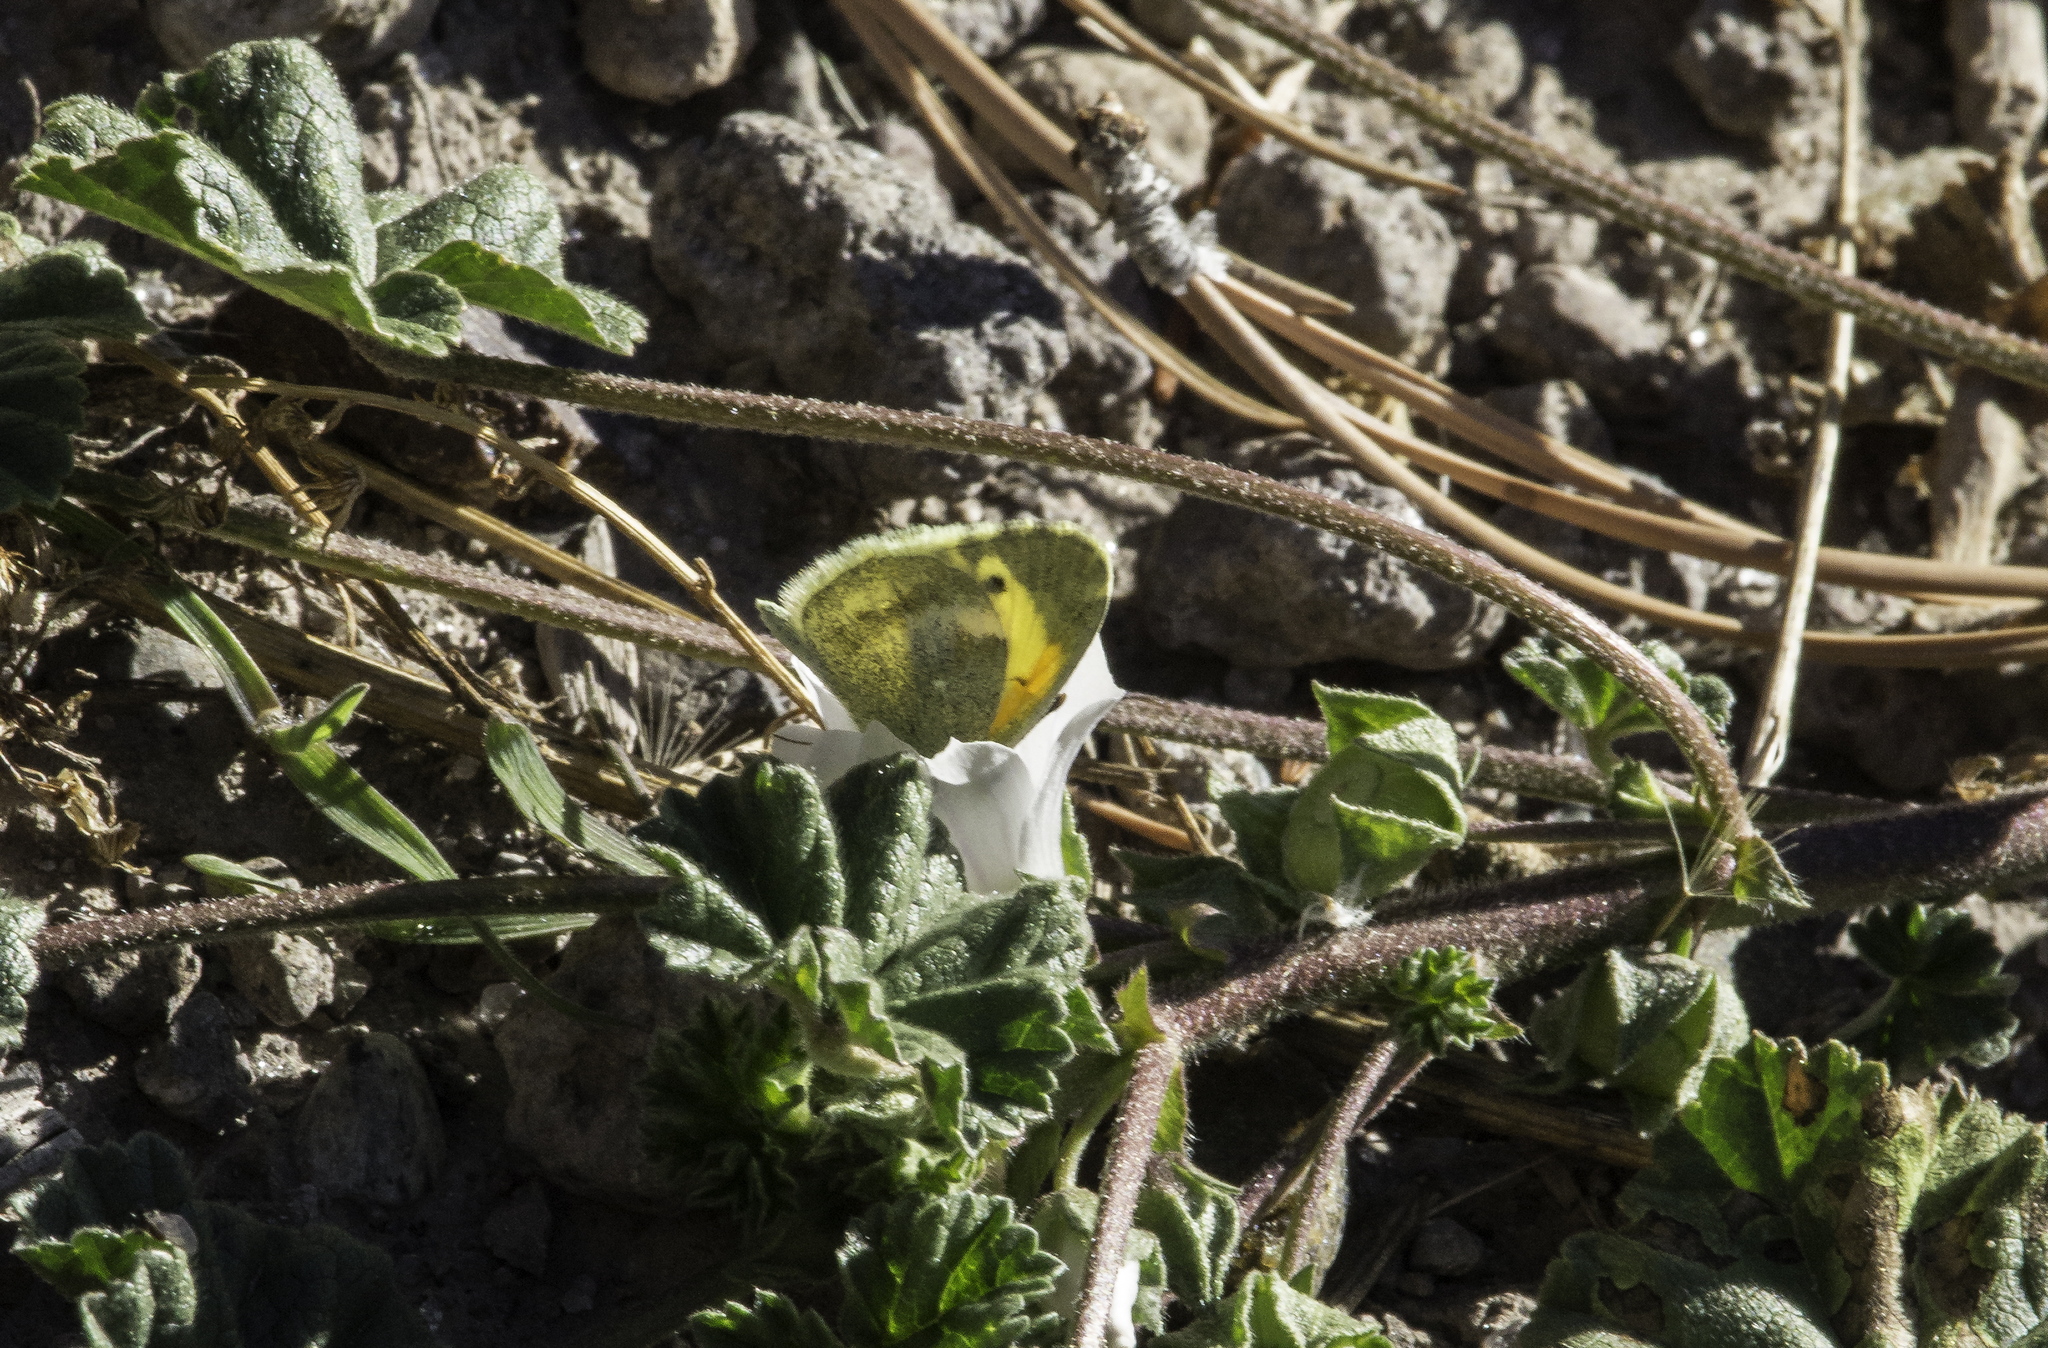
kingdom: Animalia
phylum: Arthropoda
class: Insecta
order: Lepidoptera
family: Pieridae
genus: Nathalis
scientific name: Nathalis iole
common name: Dainty sulphur
